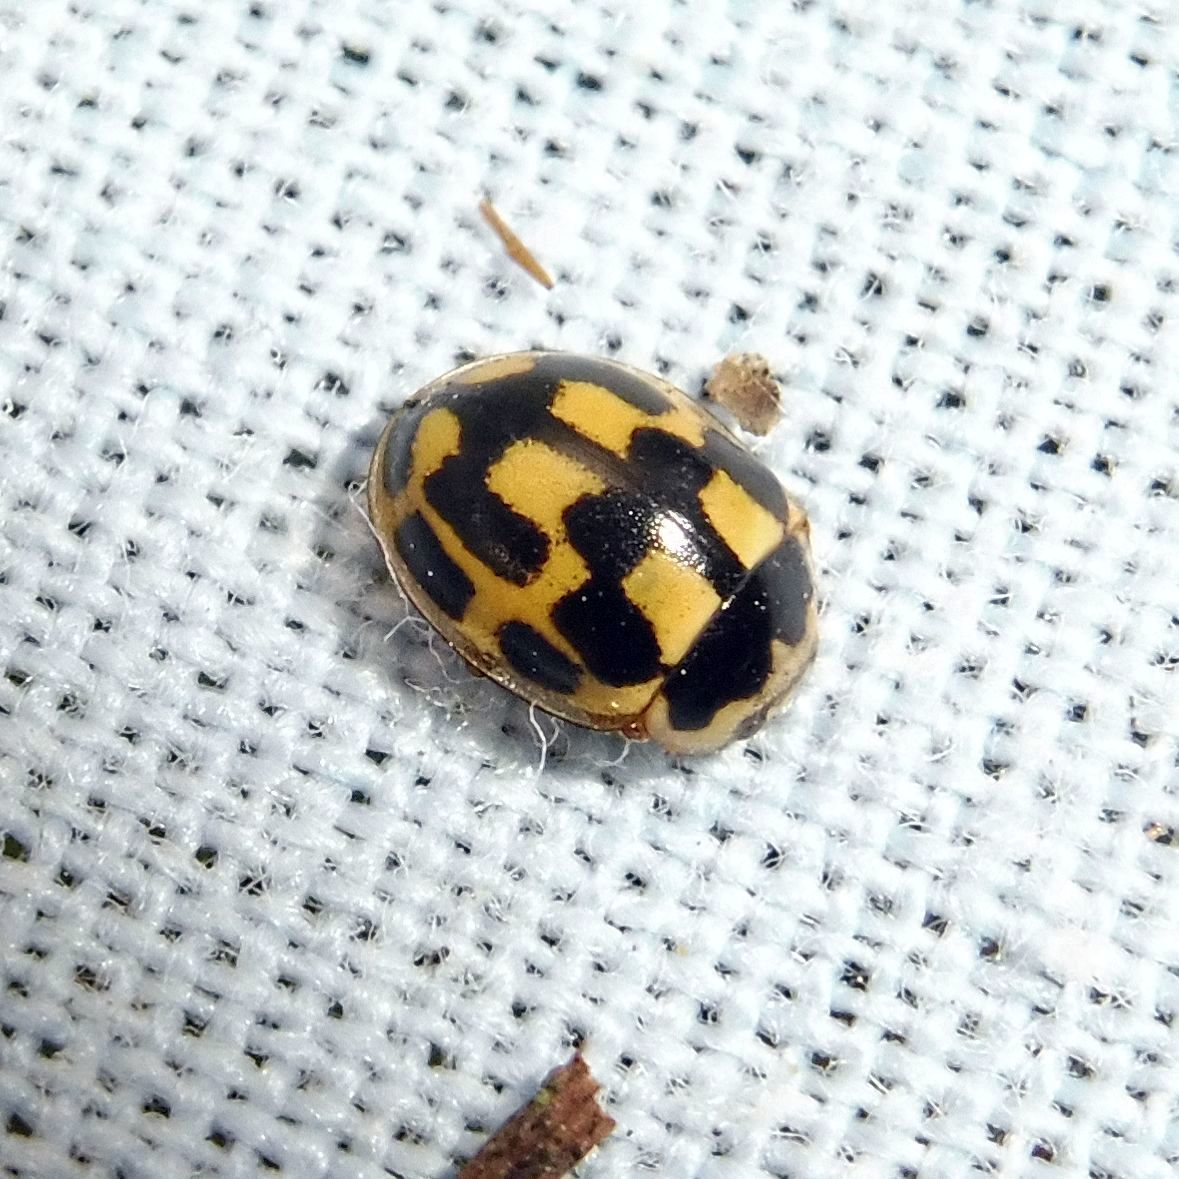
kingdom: Animalia
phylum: Arthropoda
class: Insecta
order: Coleoptera
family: Coccinellidae
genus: Propylaea
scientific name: Propylaea quatuordecimpunctata
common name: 14-spotted ladybird beetle
